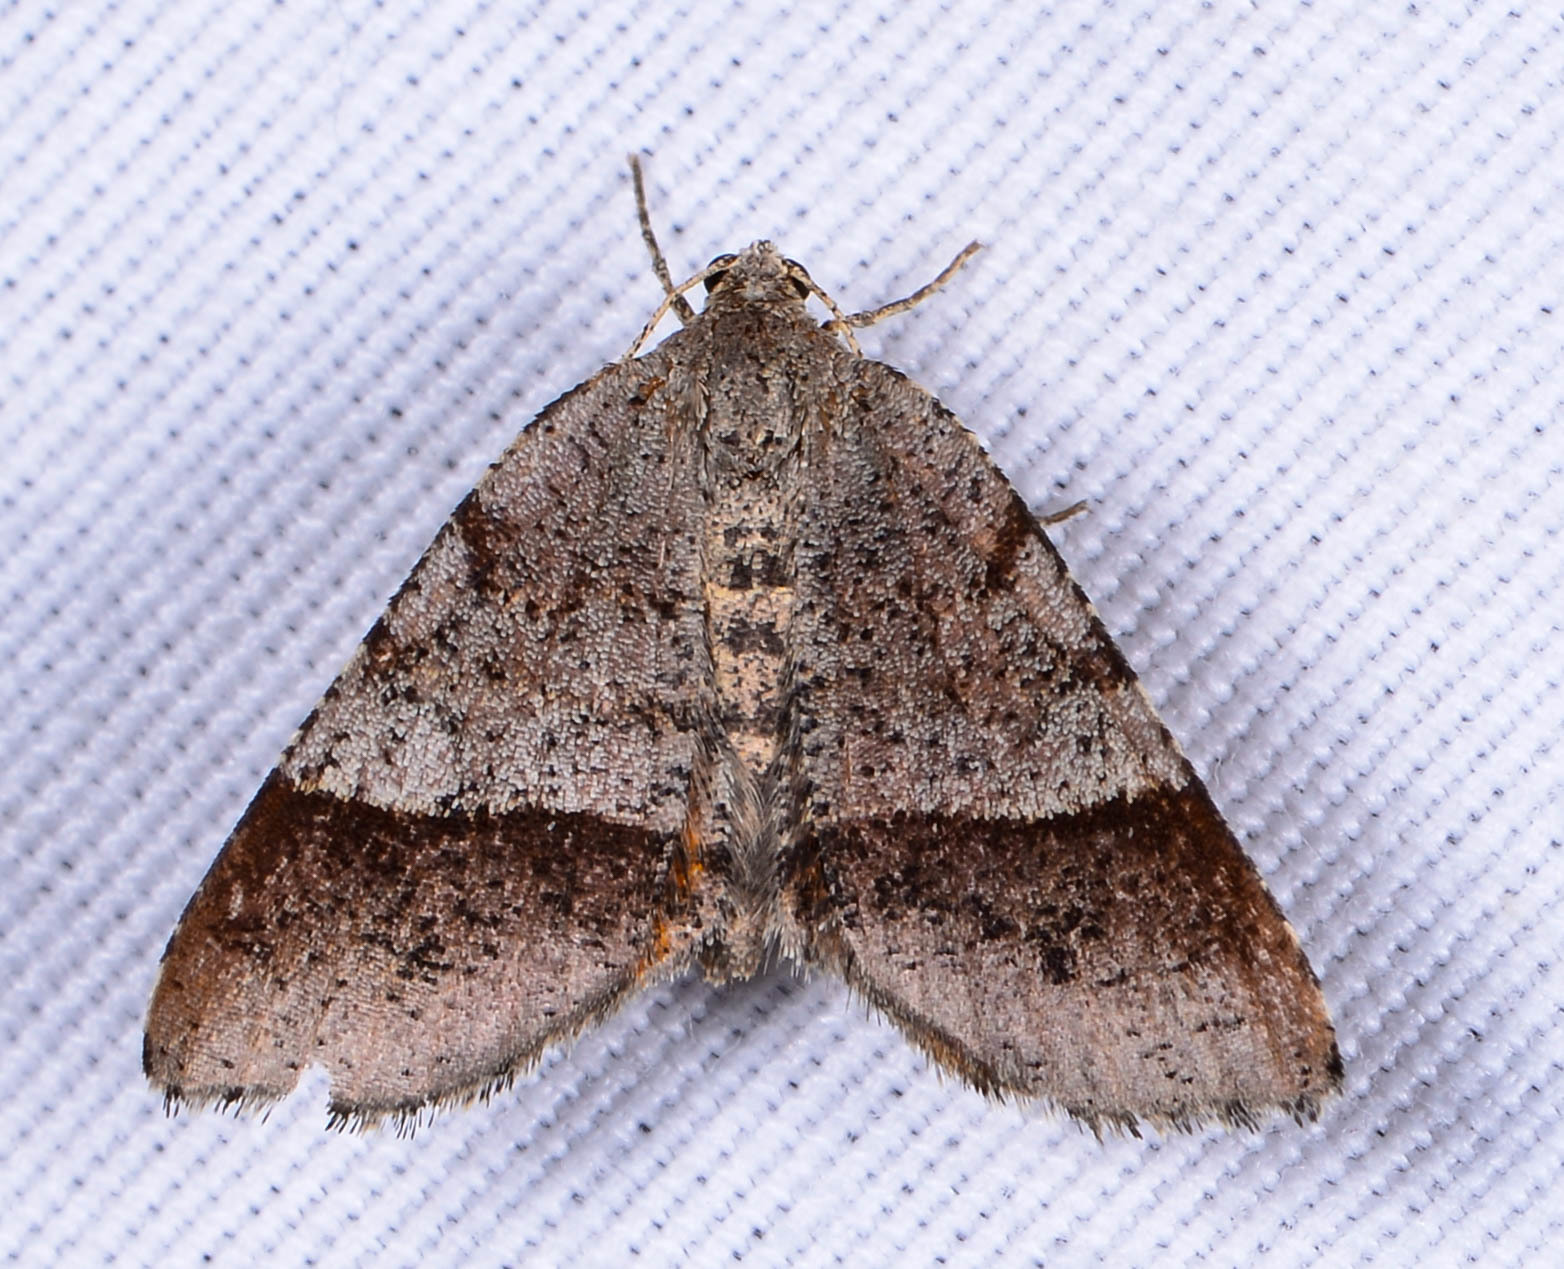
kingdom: Animalia
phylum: Arthropoda
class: Insecta
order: Lepidoptera
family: Geometridae
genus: Mellilla
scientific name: Mellilla xanthometata
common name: Orange wing moth
